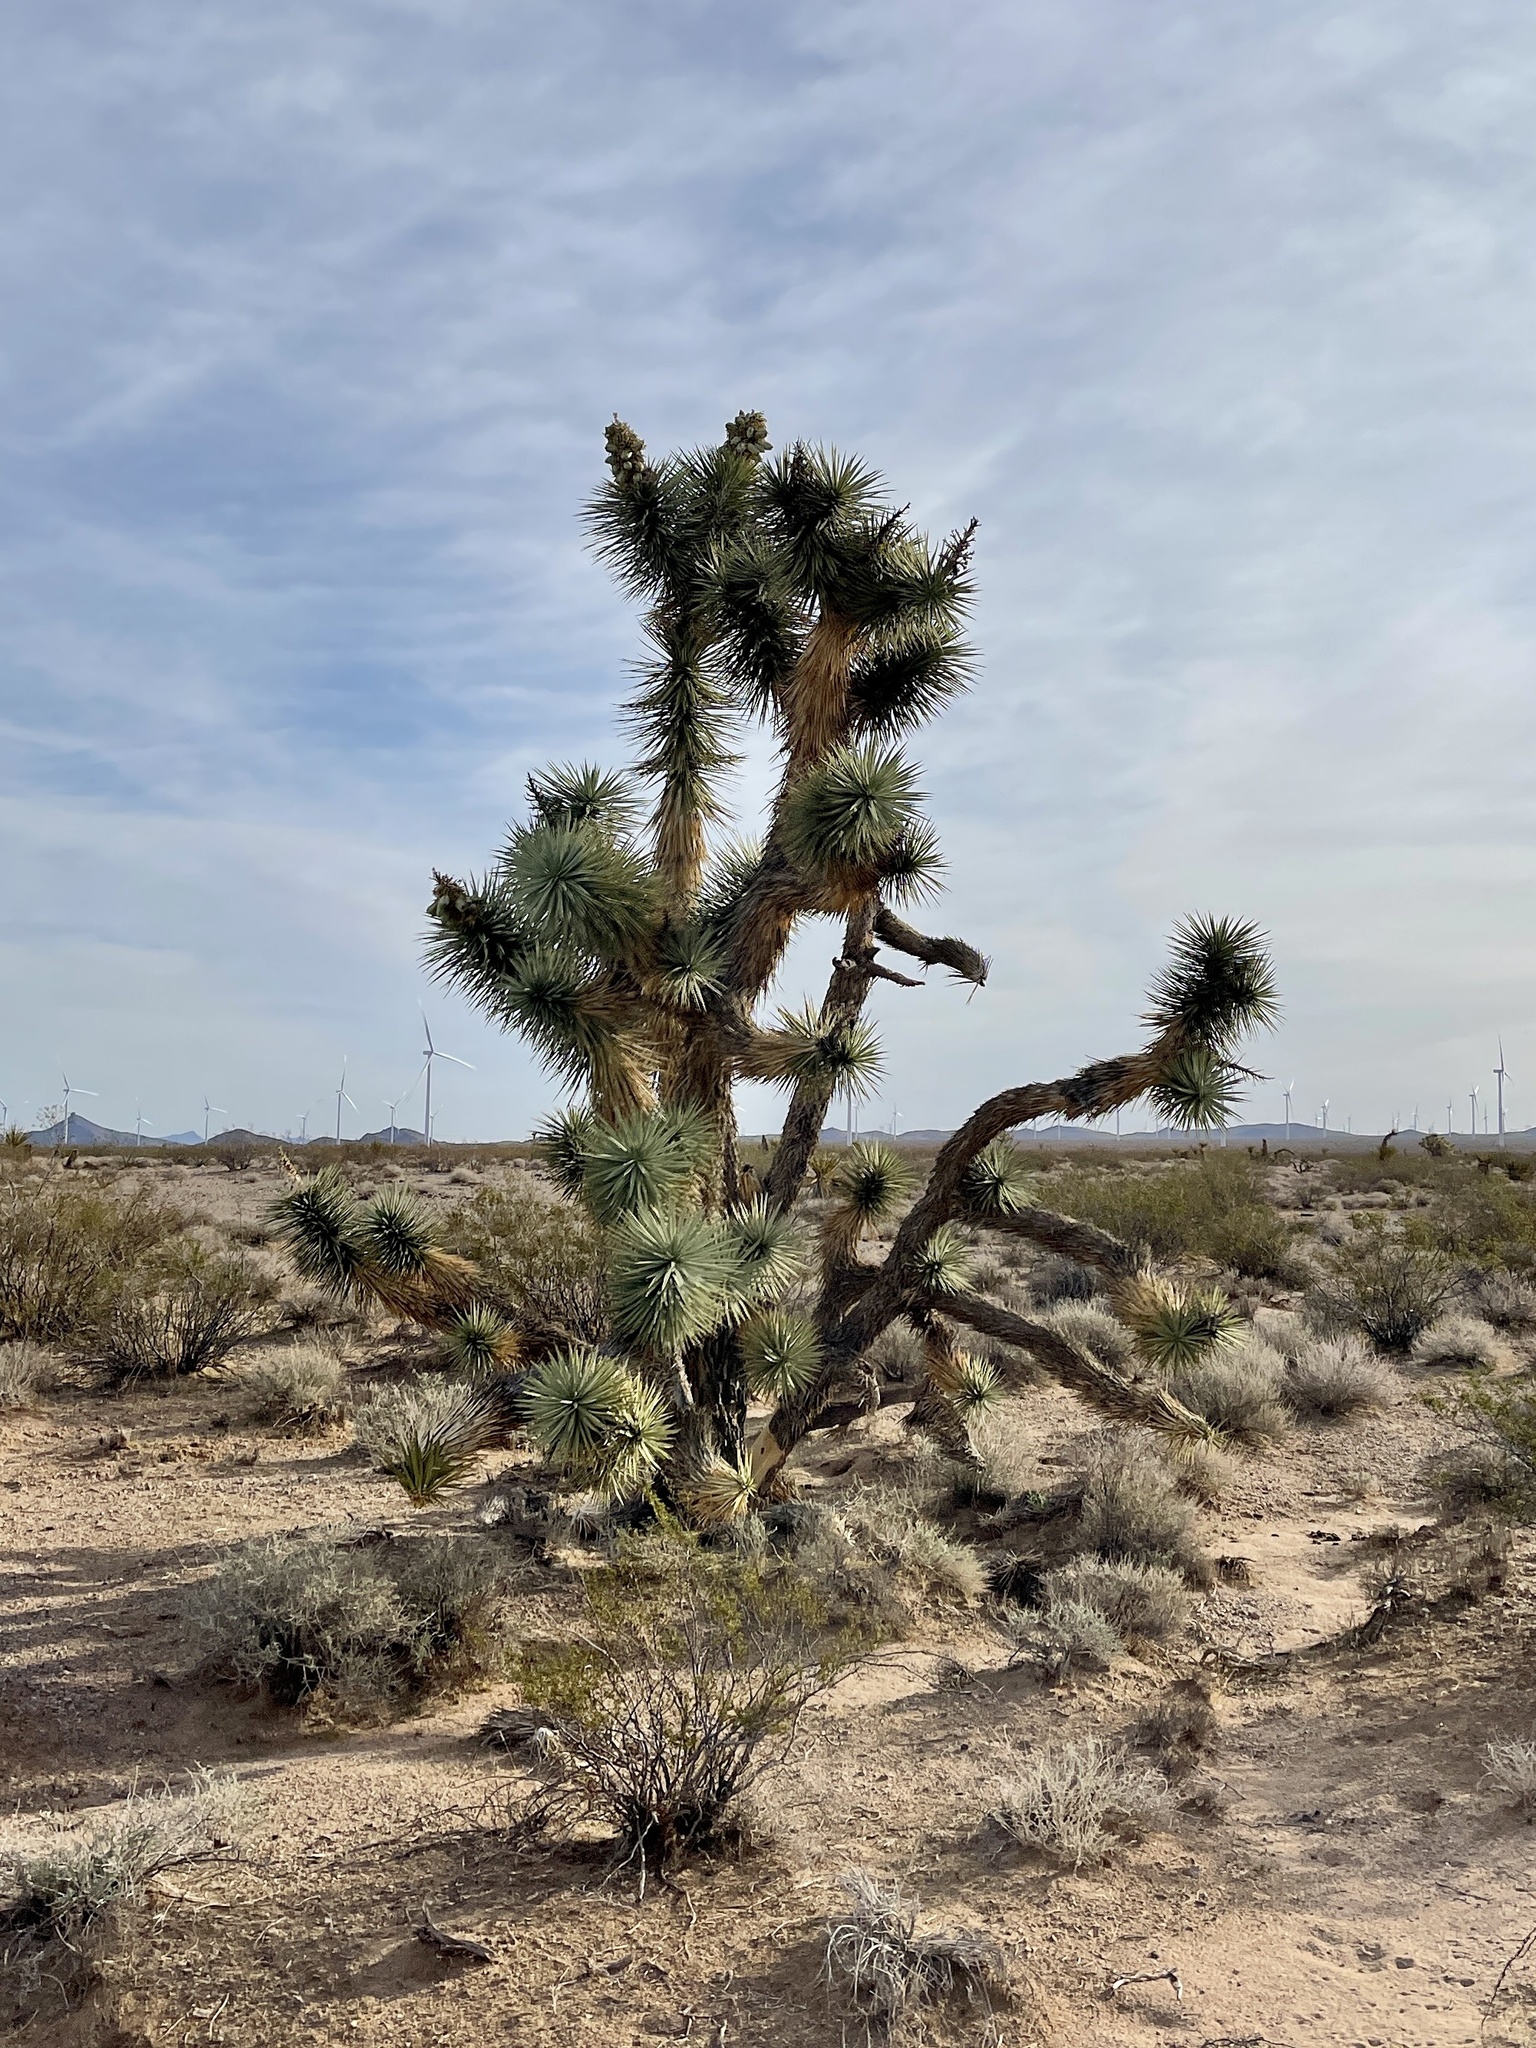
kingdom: Plantae
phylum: Tracheophyta
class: Liliopsida
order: Asparagales
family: Asparagaceae
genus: Yucca
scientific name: Yucca brevifolia
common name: Joshua tree
